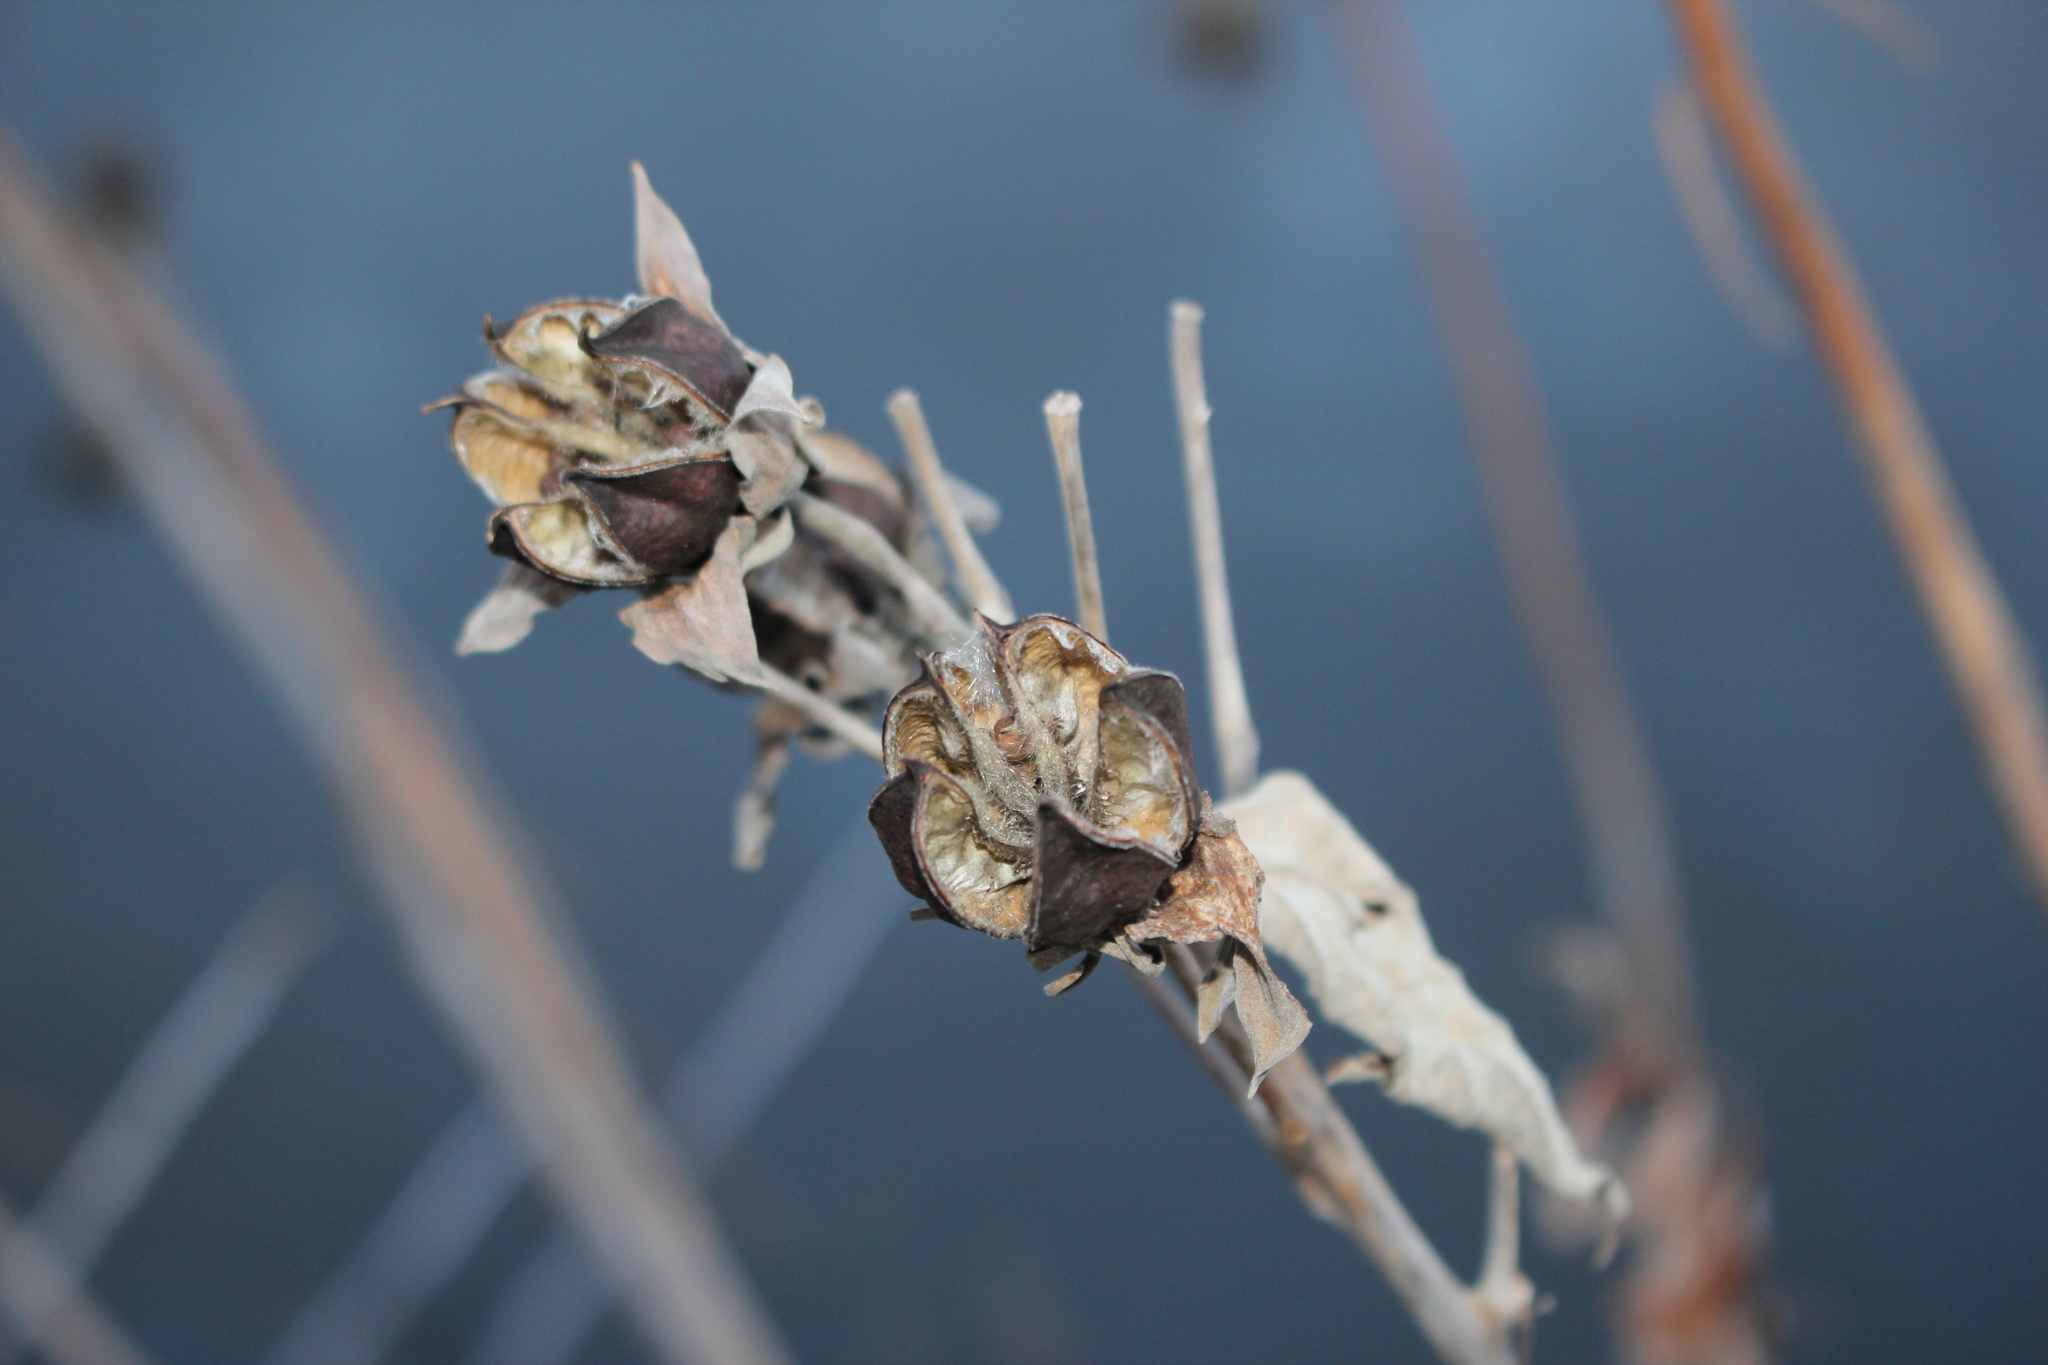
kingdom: Plantae
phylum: Tracheophyta
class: Magnoliopsida
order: Malvales
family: Malvaceae
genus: Hibiscus
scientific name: Hibiscus moscheutos
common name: Common rose-mallow
